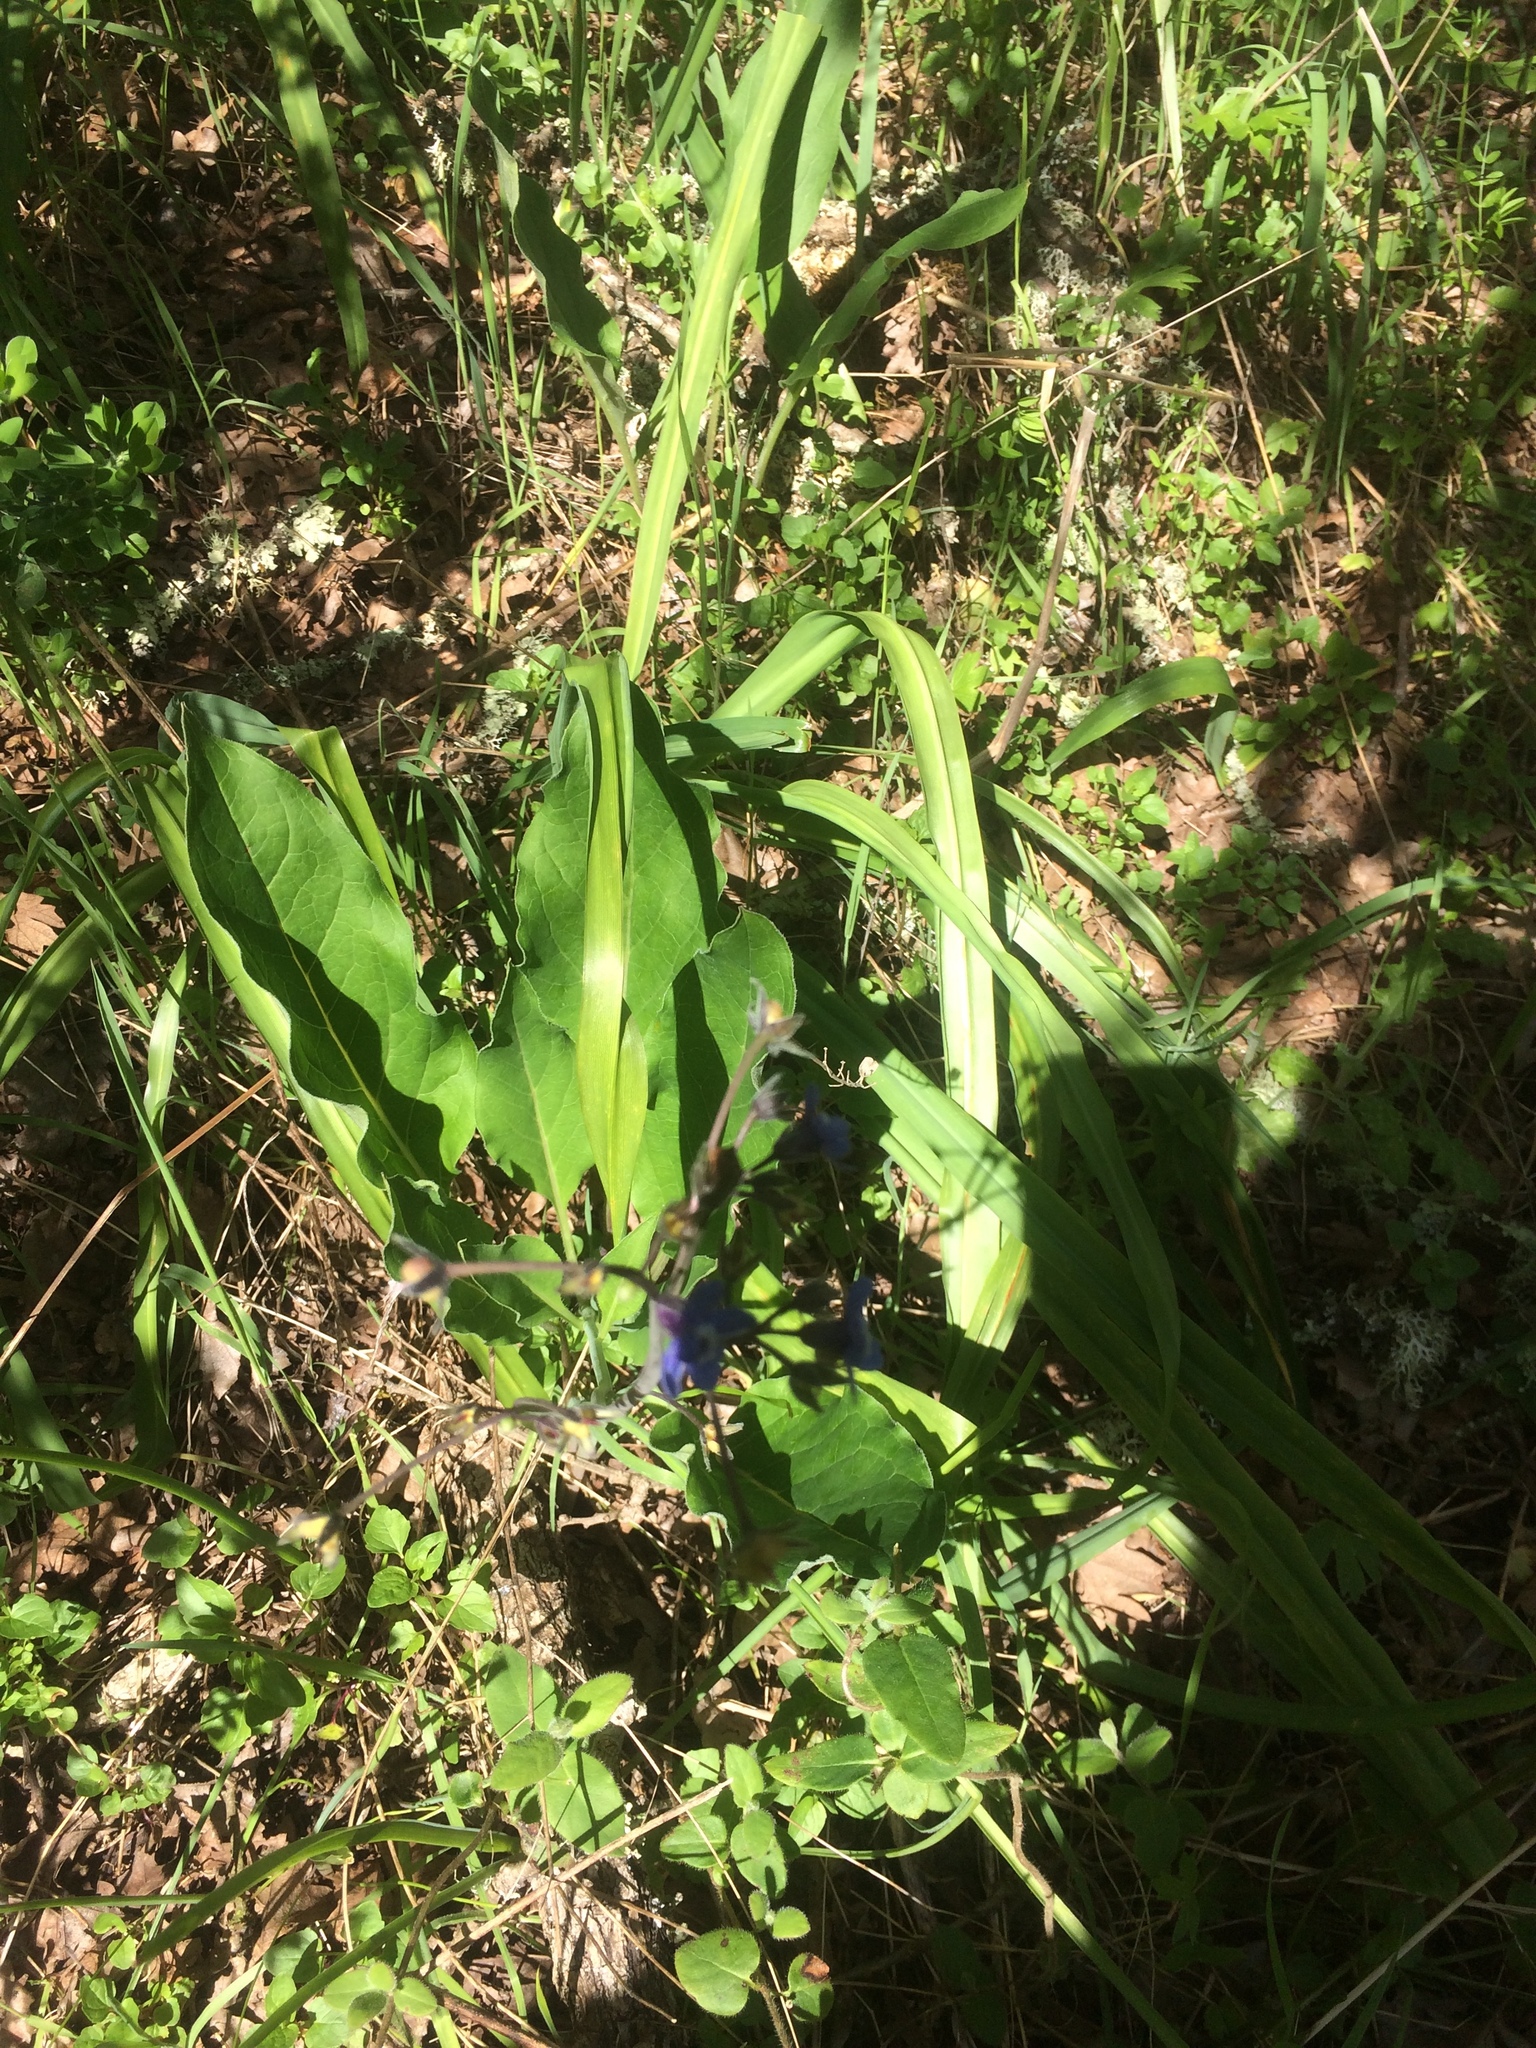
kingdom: Plantae
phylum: Tracheophyta
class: Magnoliopsida
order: Boraginales
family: Boraginaceae
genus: Adelinia
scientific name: Adelinia grande
